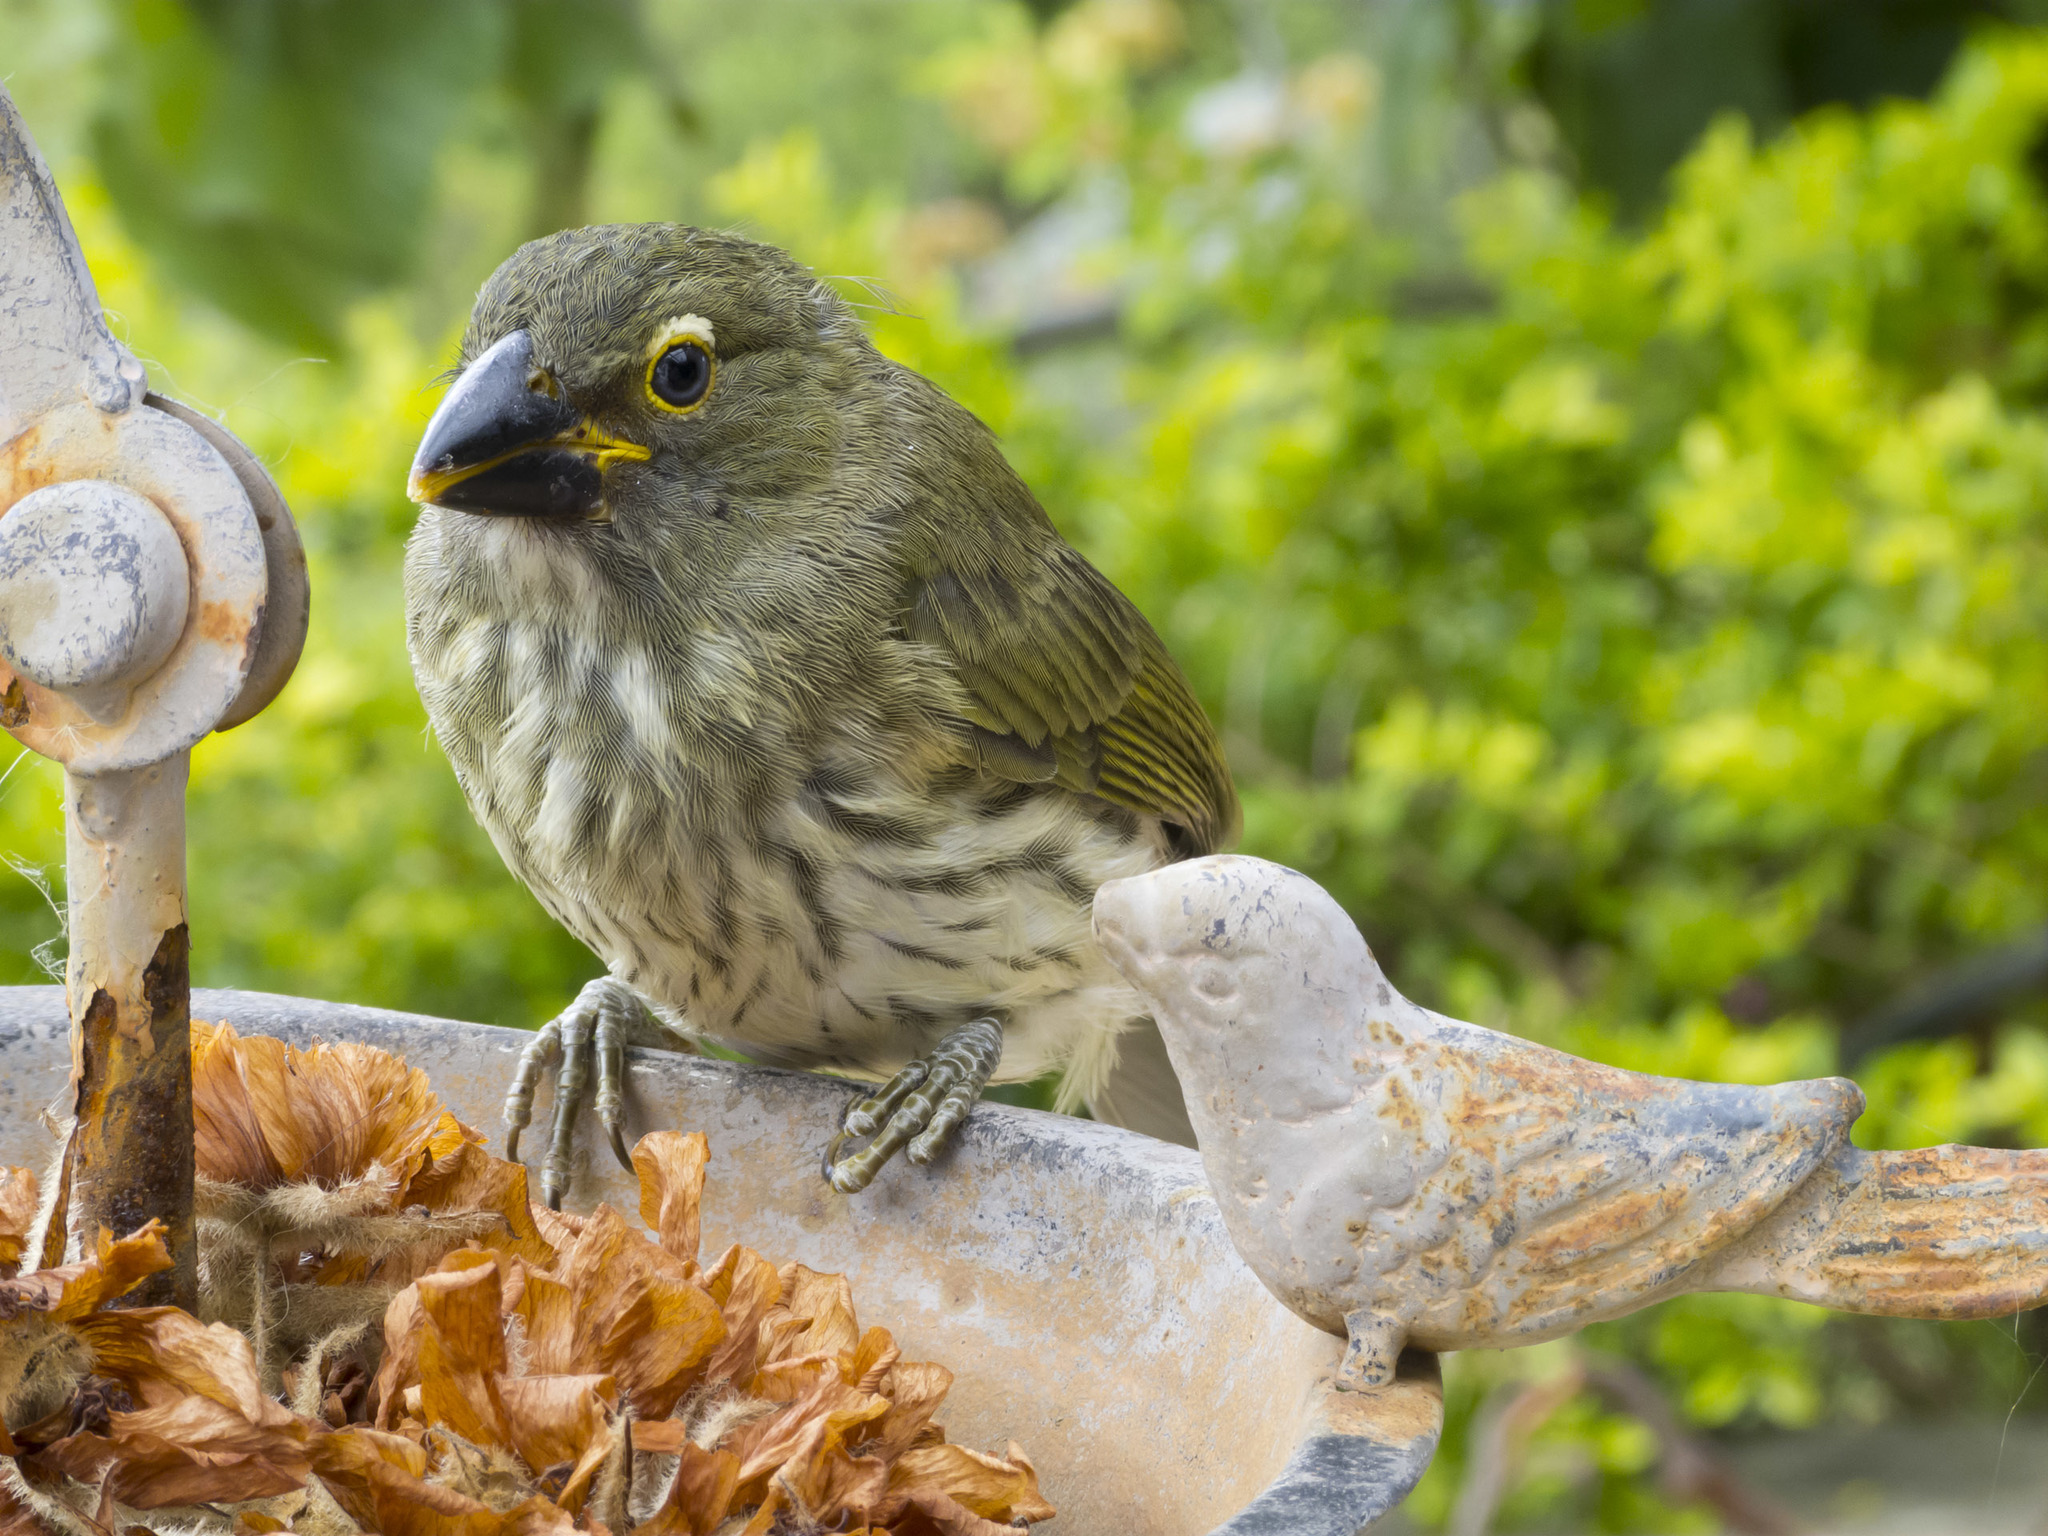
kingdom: Animalia
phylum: Chordata
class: Aves
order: Passeriformes
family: Thraupidae
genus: Saltator
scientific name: Saltator striatipectus
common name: Streaked saltator
